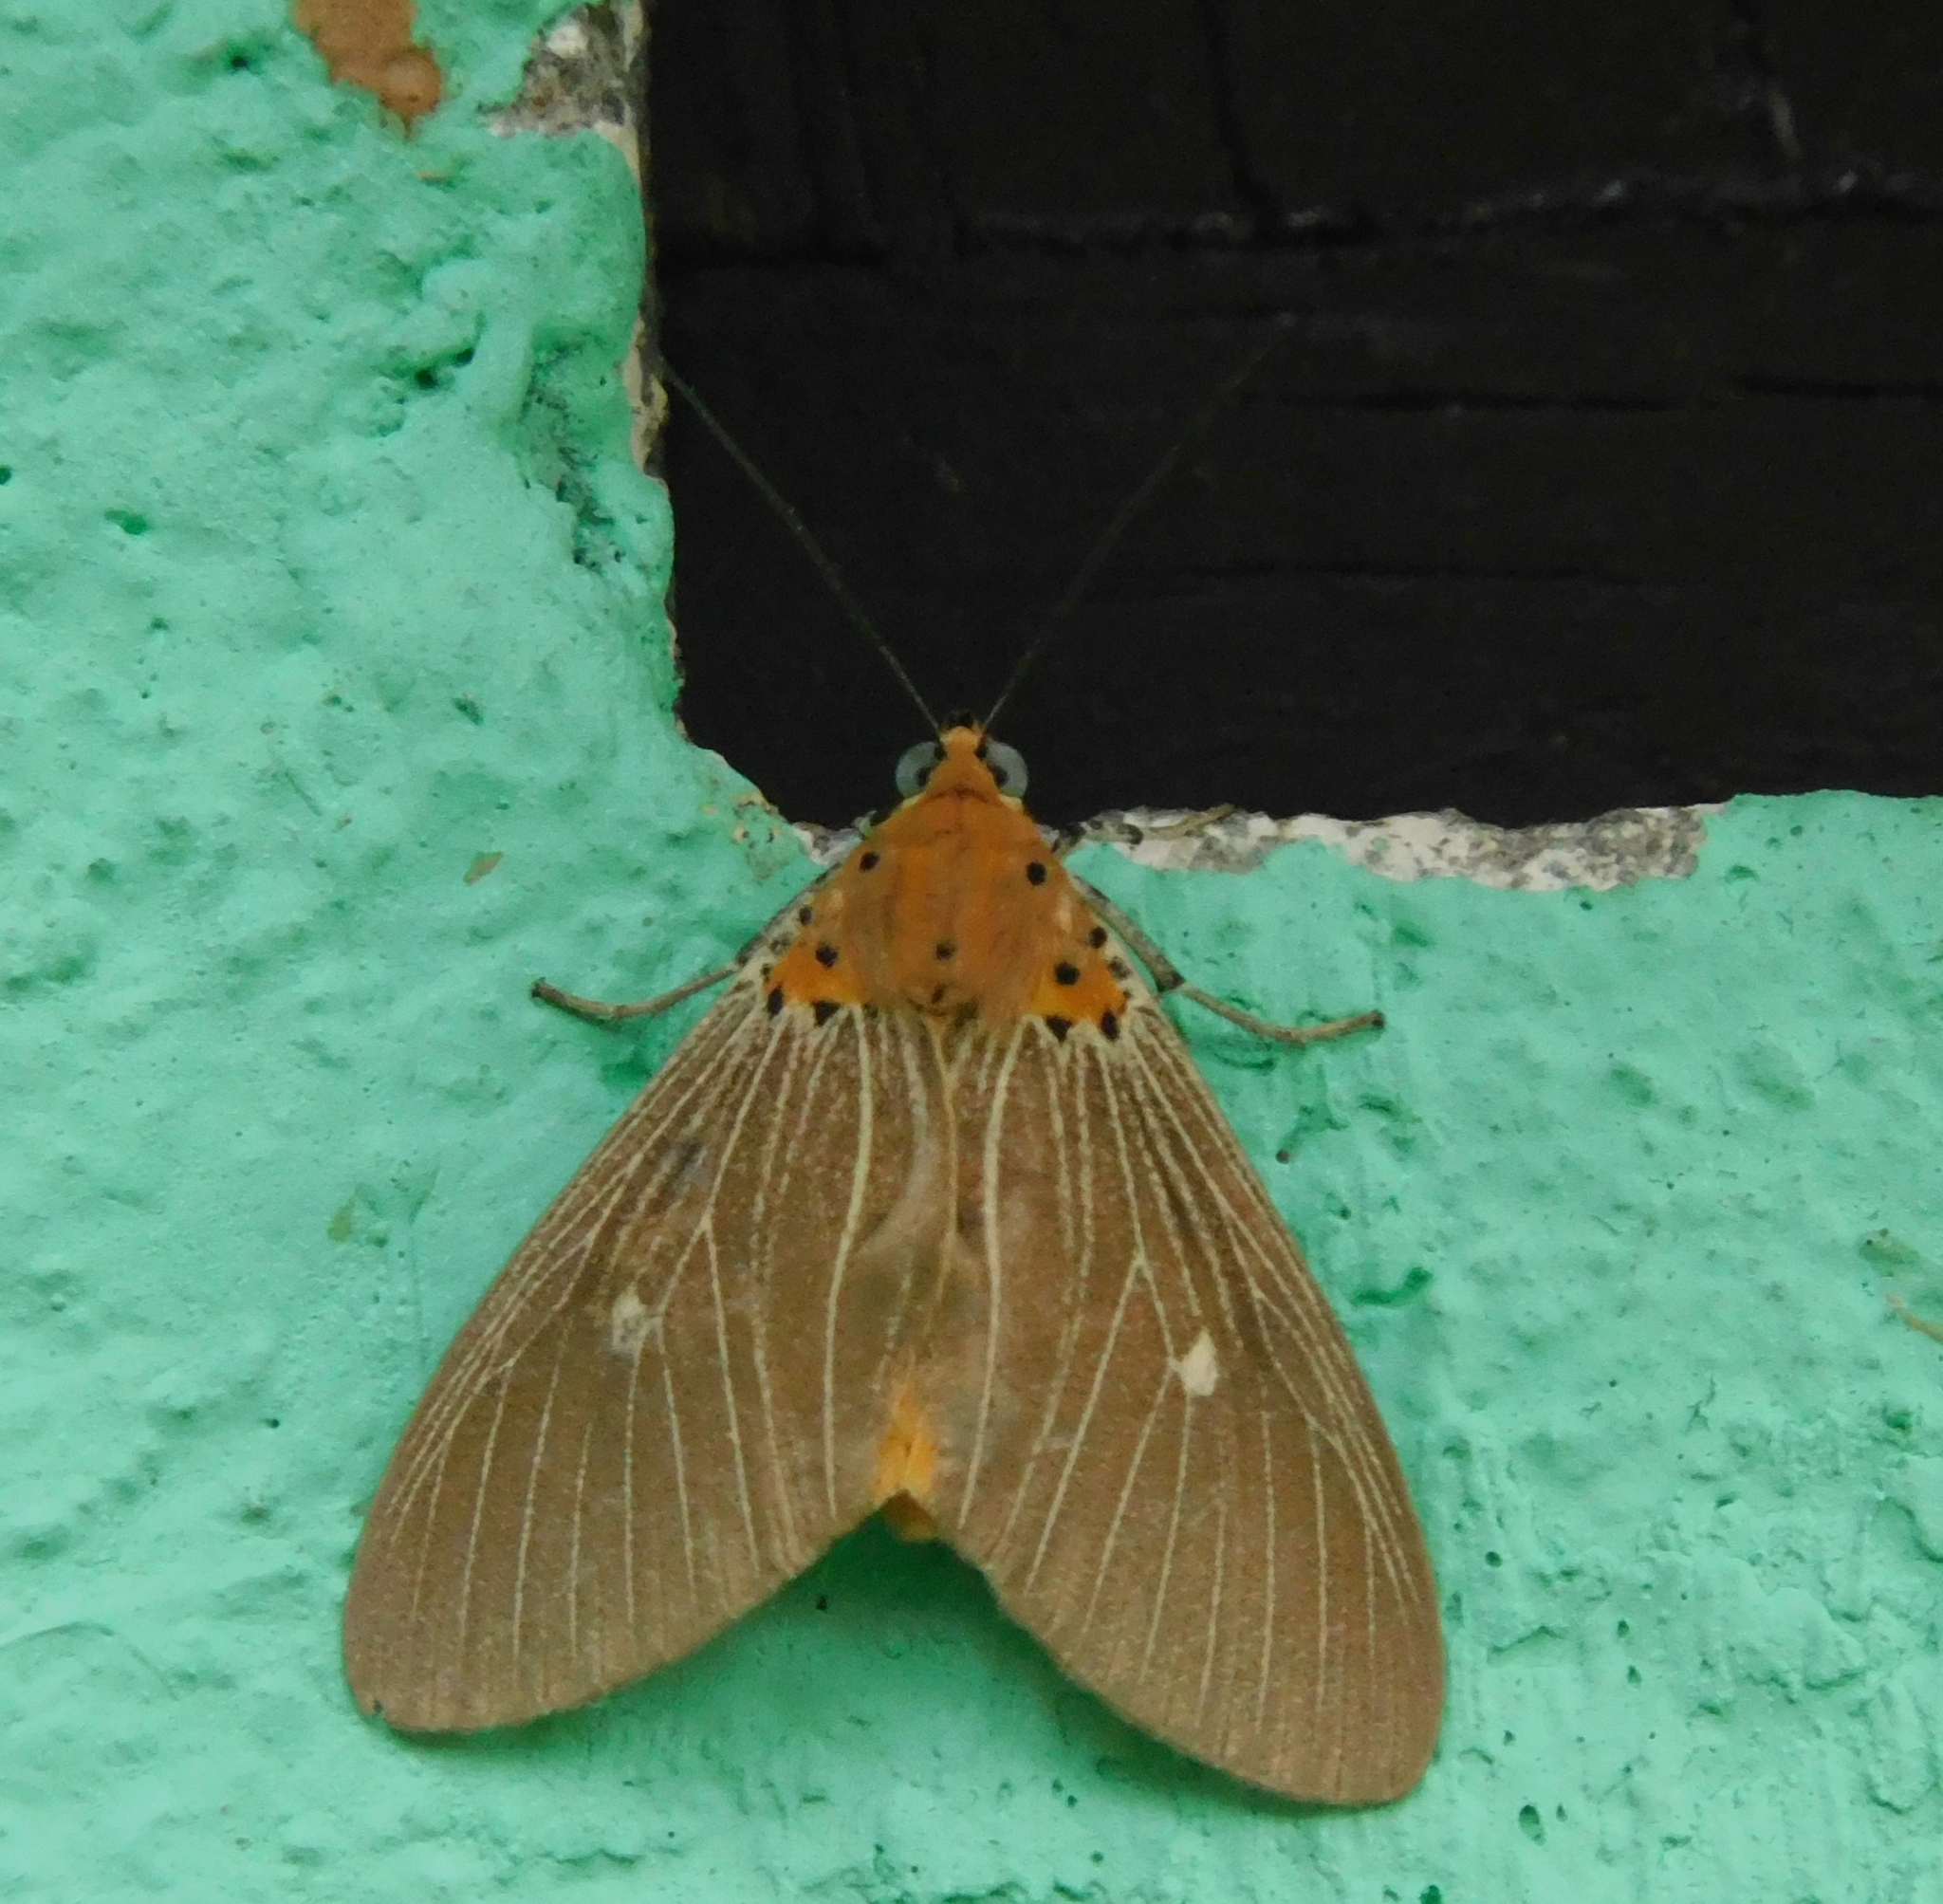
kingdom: Animalia
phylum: Arthropoda
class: Insecta
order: Lepidoptera
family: Erebidae
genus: Asota
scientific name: Asota caricae
